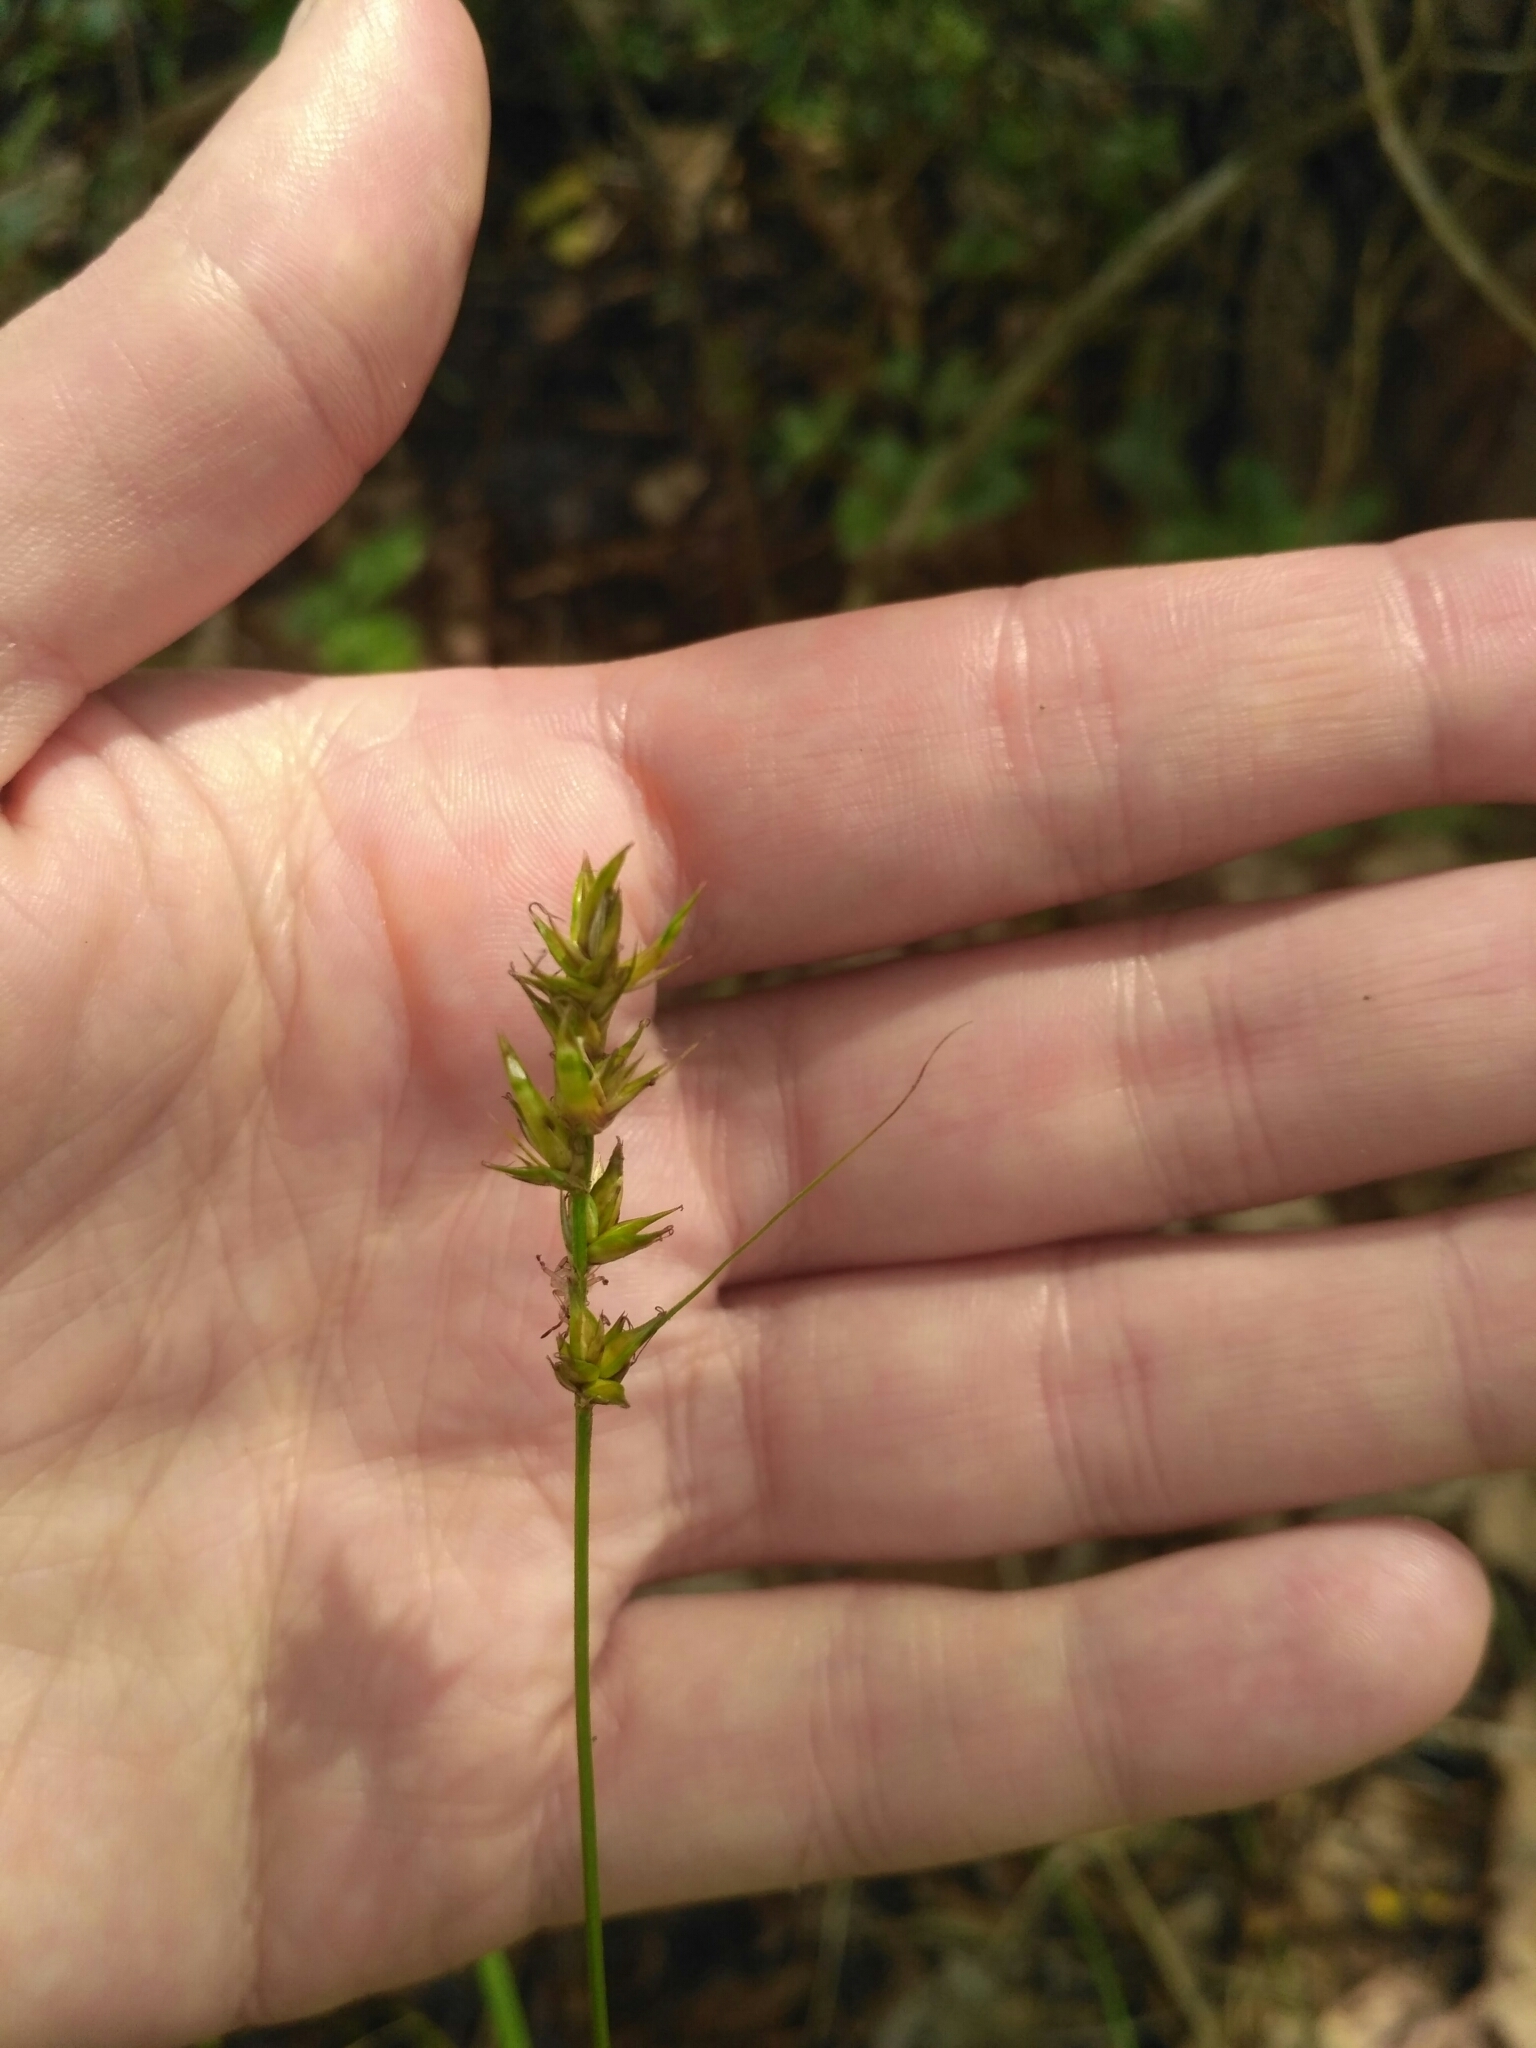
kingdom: Plantae
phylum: Tracheophyta
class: Liliopsida
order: Poales
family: Cyperaceae
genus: Carex
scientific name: Carex spicata
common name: Spiked sedge
